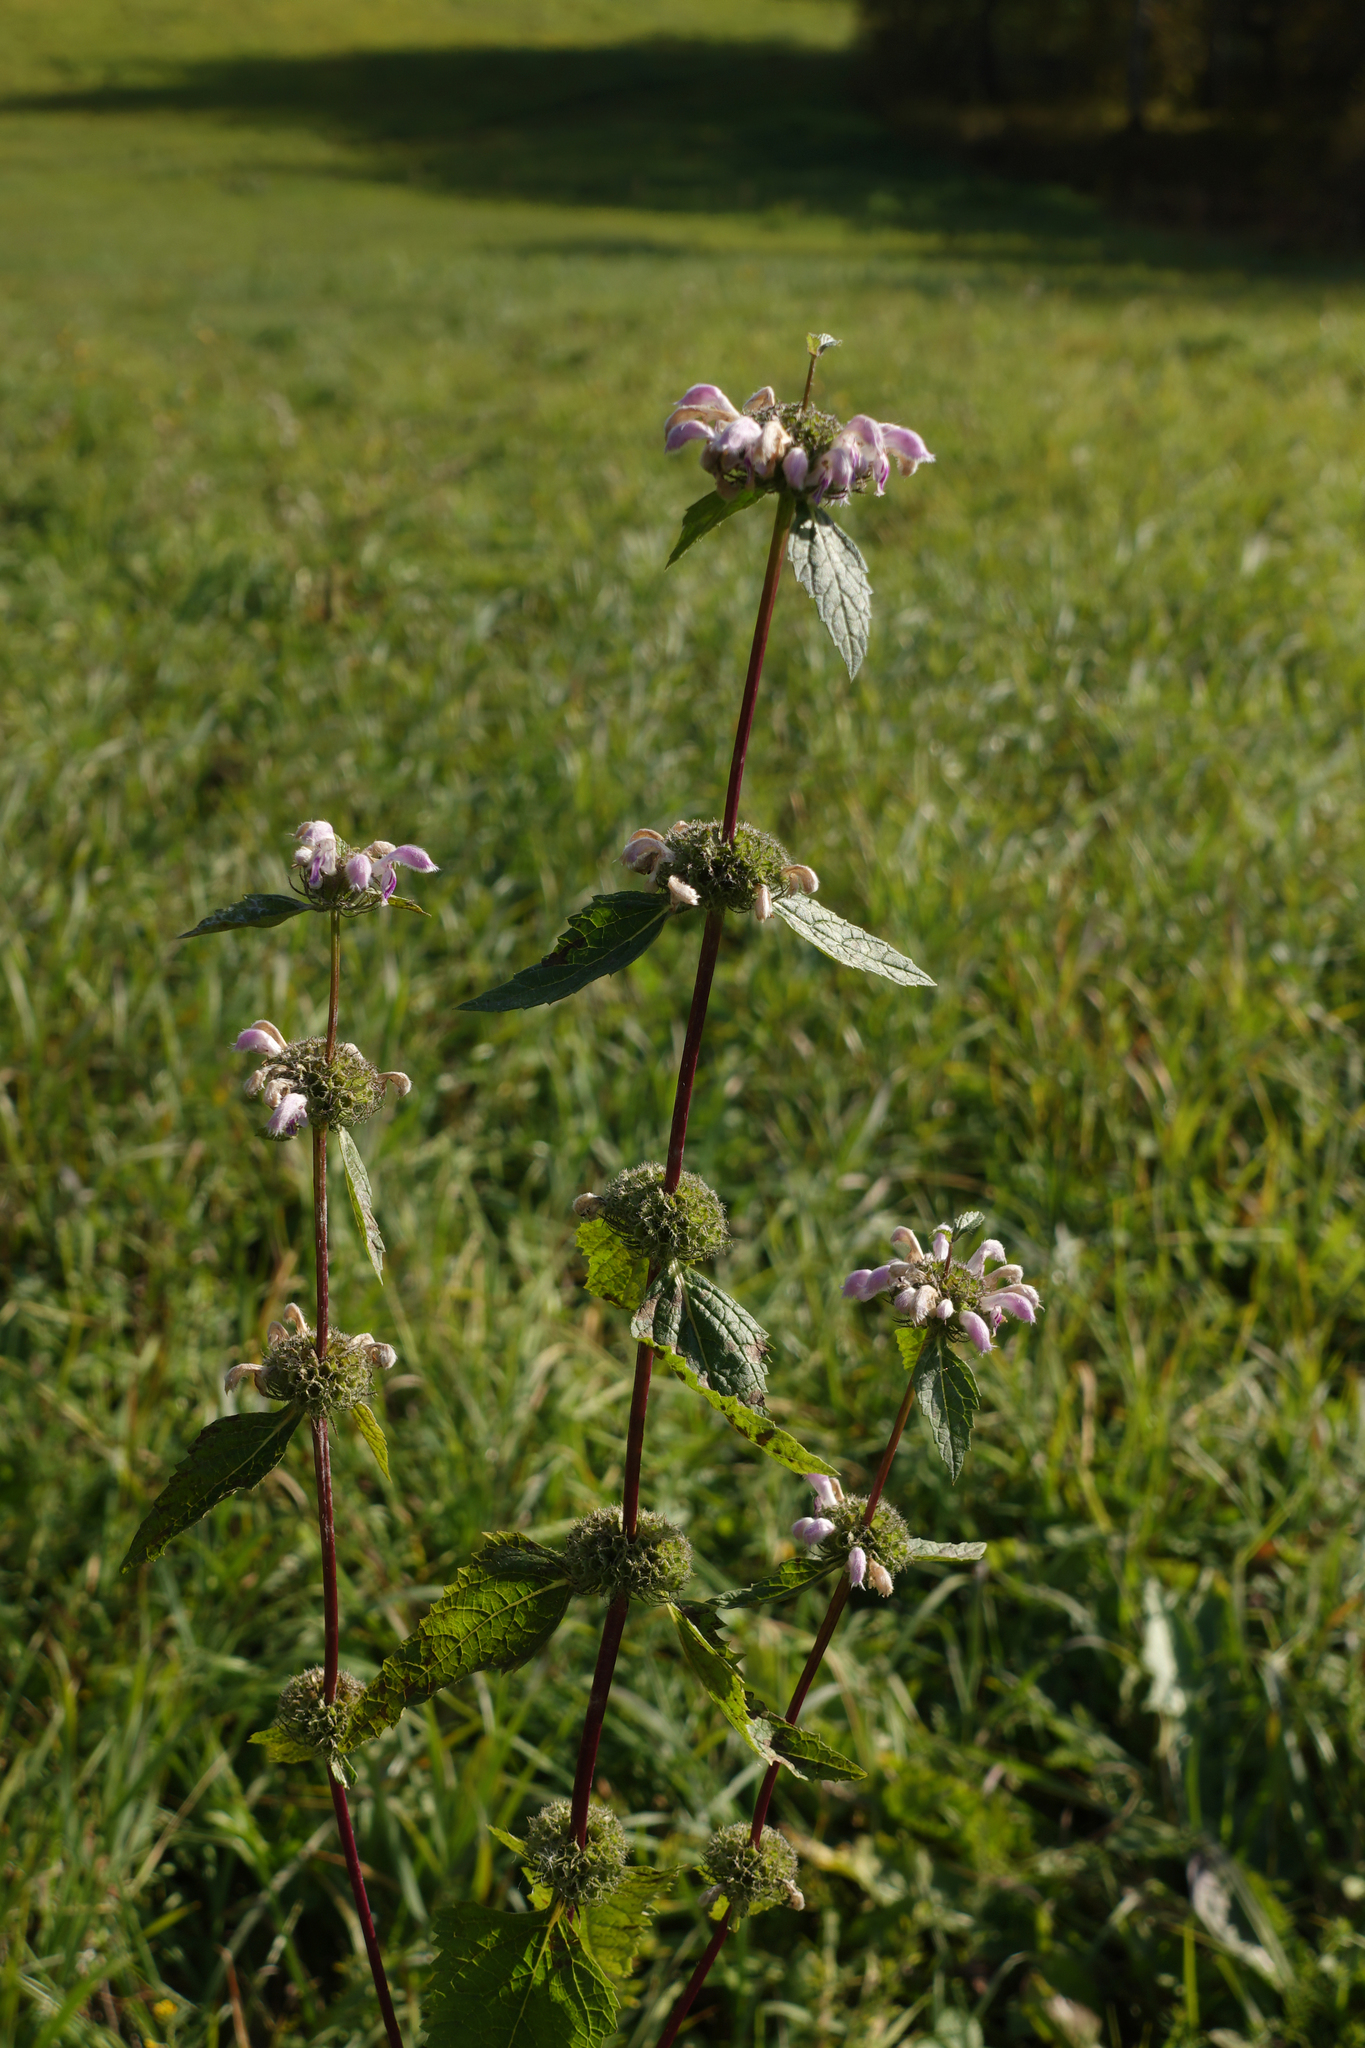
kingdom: Plantae
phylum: Tracheophyta
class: Magnoliopsida
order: Lamiales
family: Lamiaceae
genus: Phlomoides
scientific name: Phlomoides tuberosa
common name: Tuberous jerusalem sage
